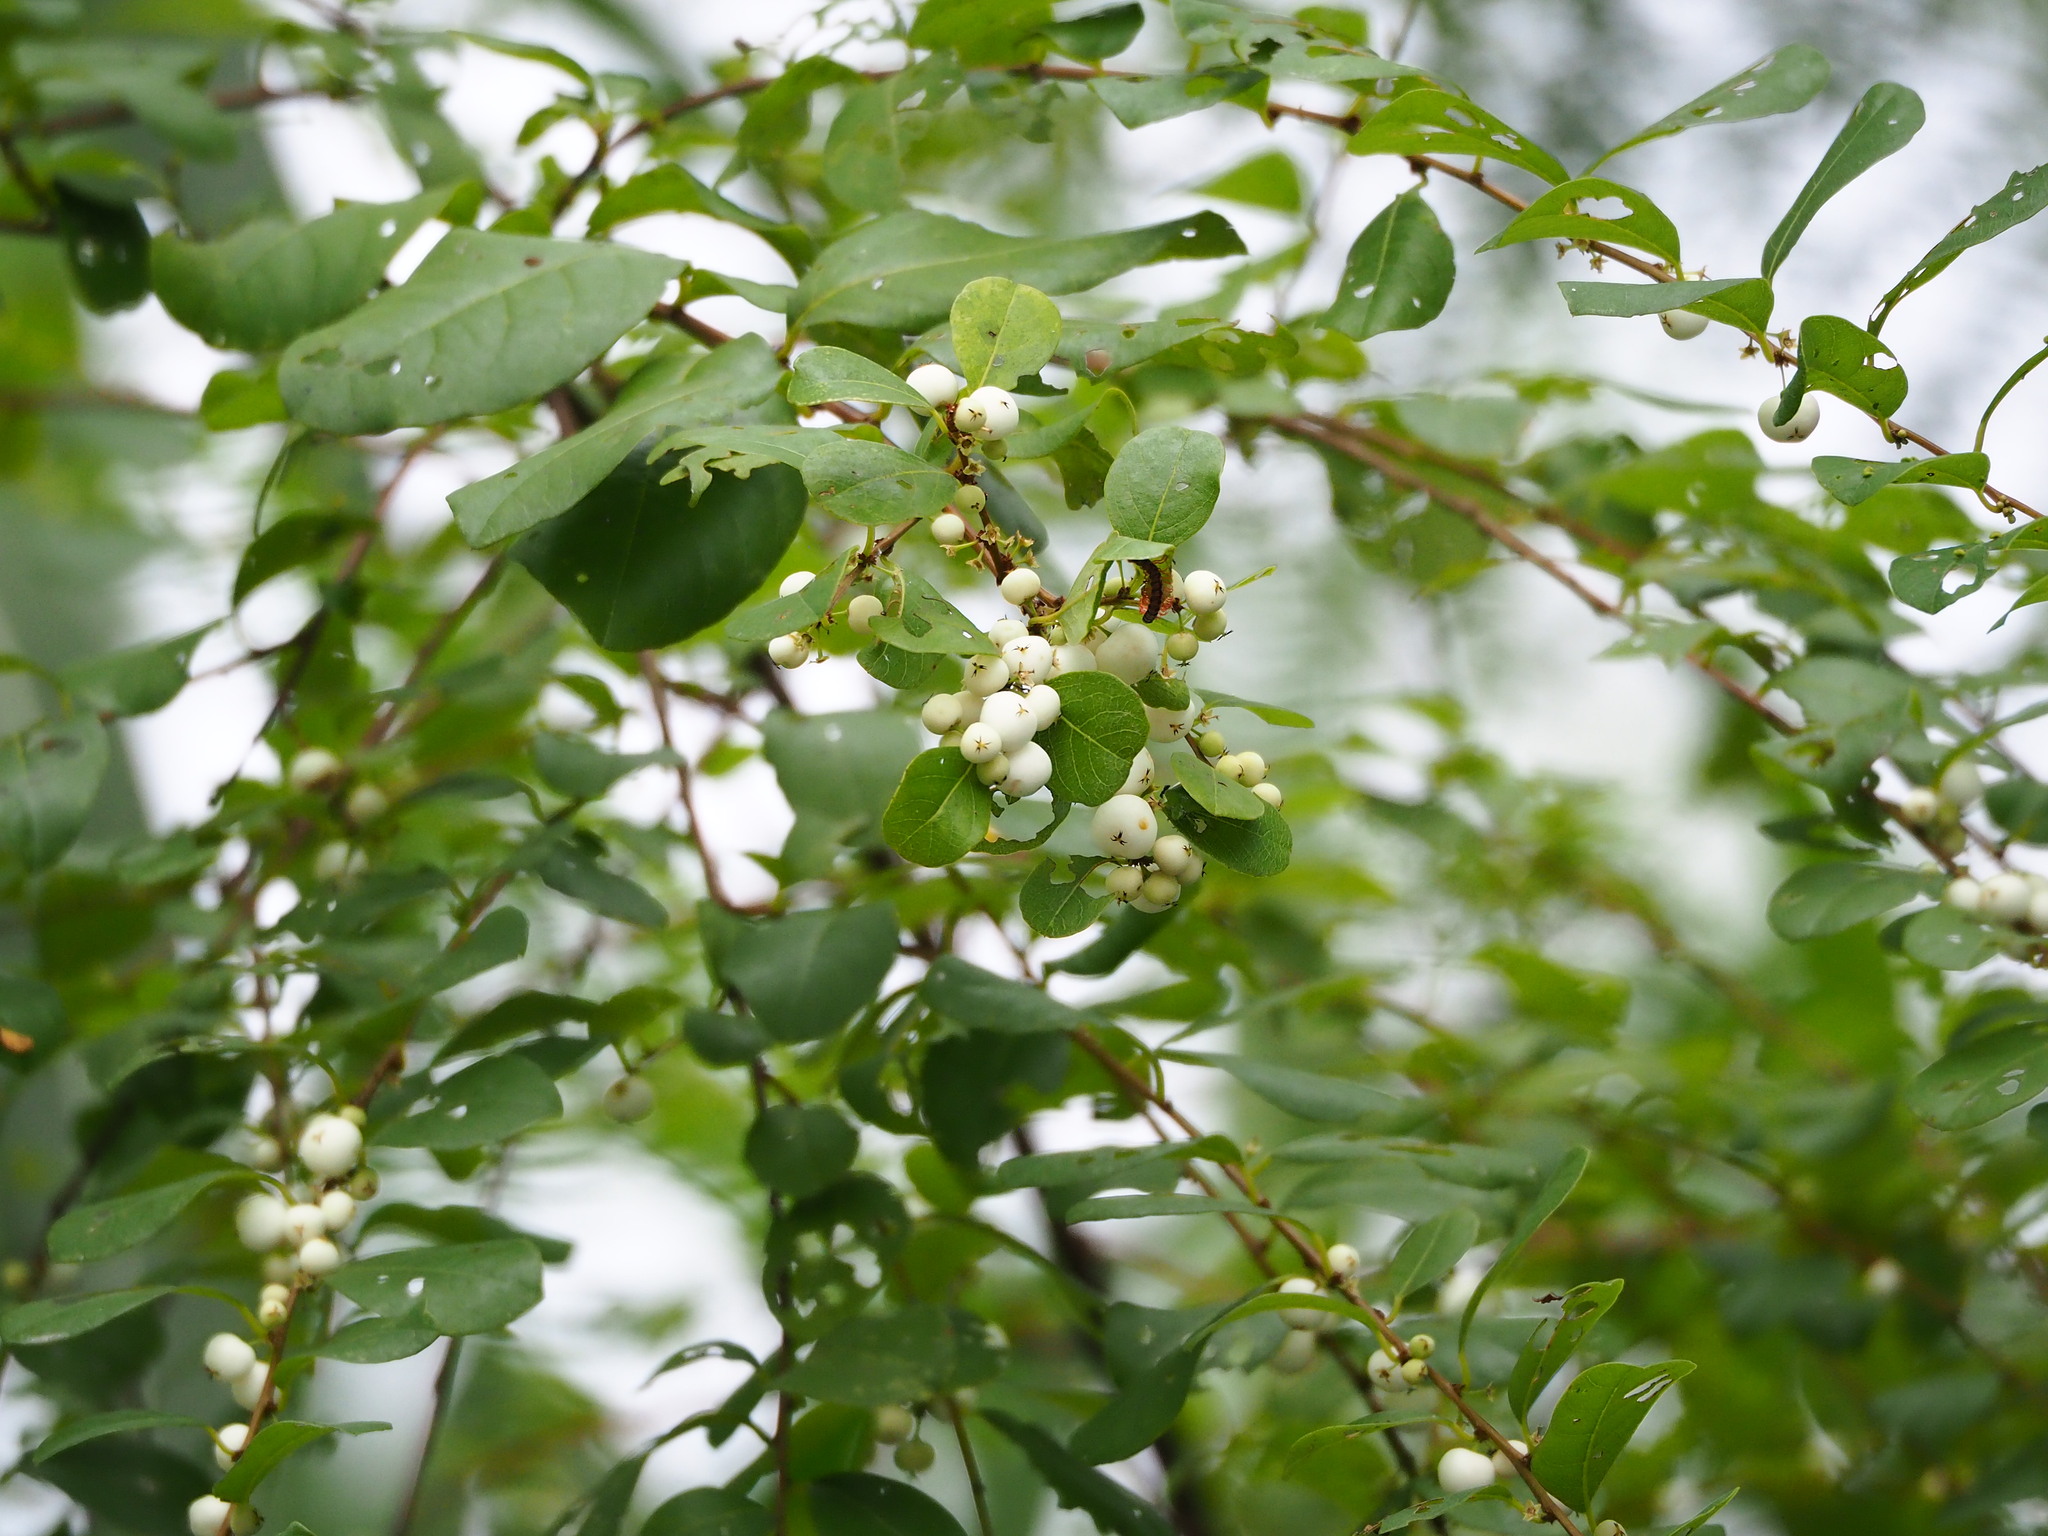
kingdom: Plantae
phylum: Tracheophyta
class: Magnoliopsida
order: Malpighiales
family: Phyllanthaceae
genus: Flueggea
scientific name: Flueggea virosa
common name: Common bushweed
